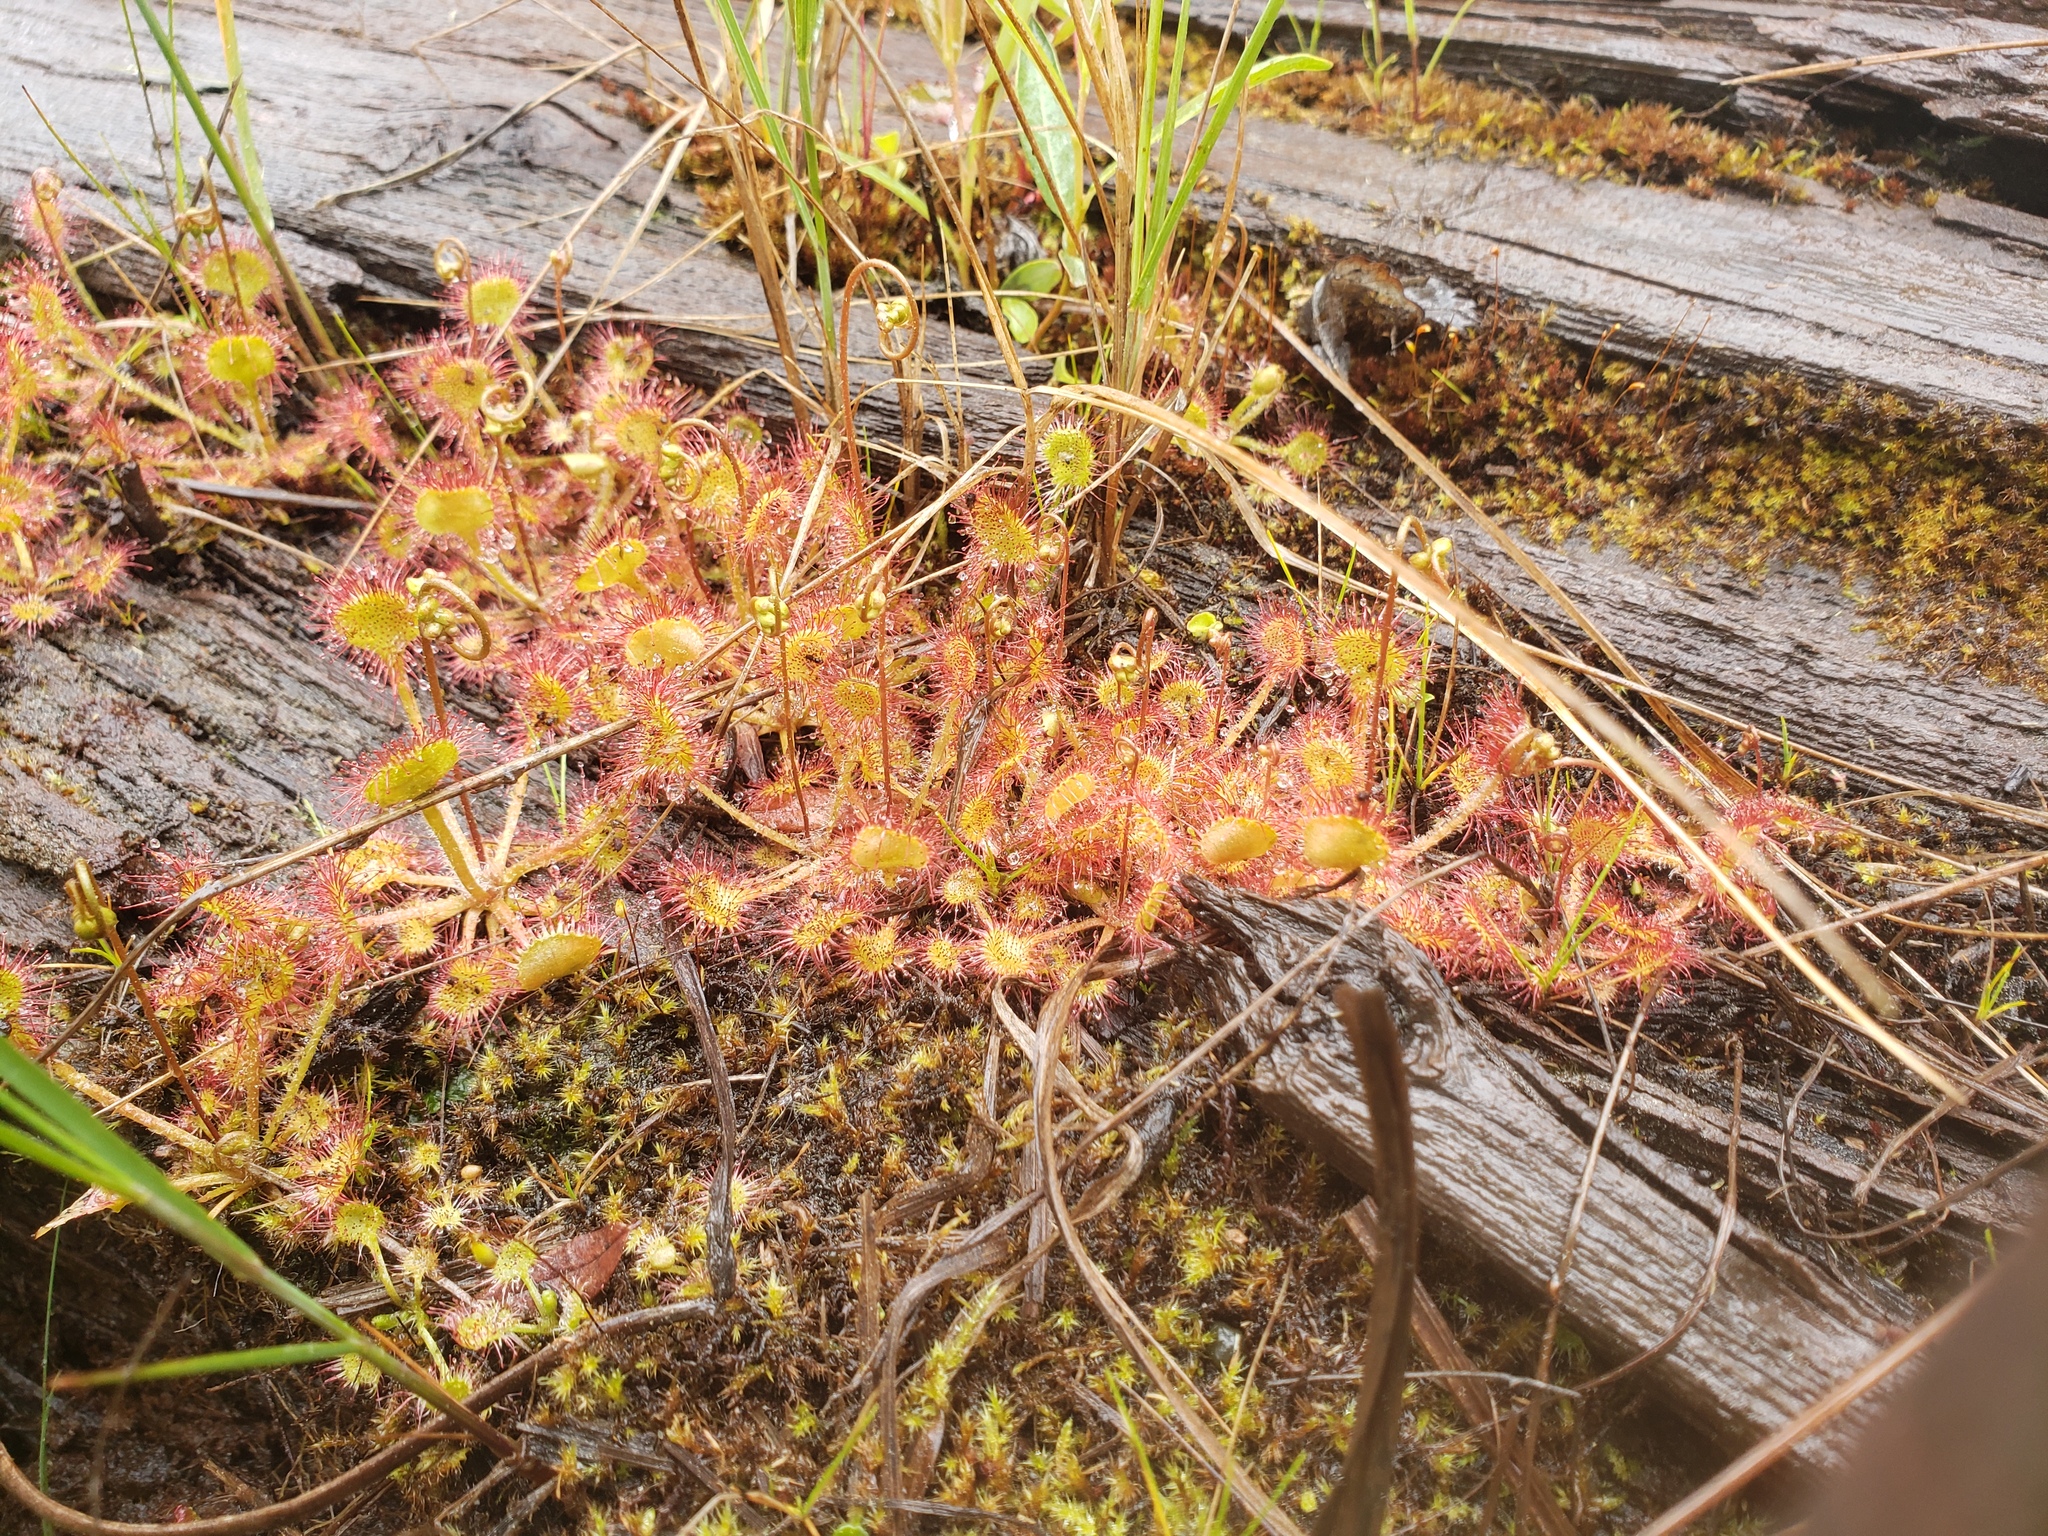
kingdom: Plantae
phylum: Tracheophyta
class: Magnoliopsida
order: Caryophyllales
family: Droseraceae
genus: Drosera
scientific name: Drosera rotundifolia
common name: Round-leaved sundew
